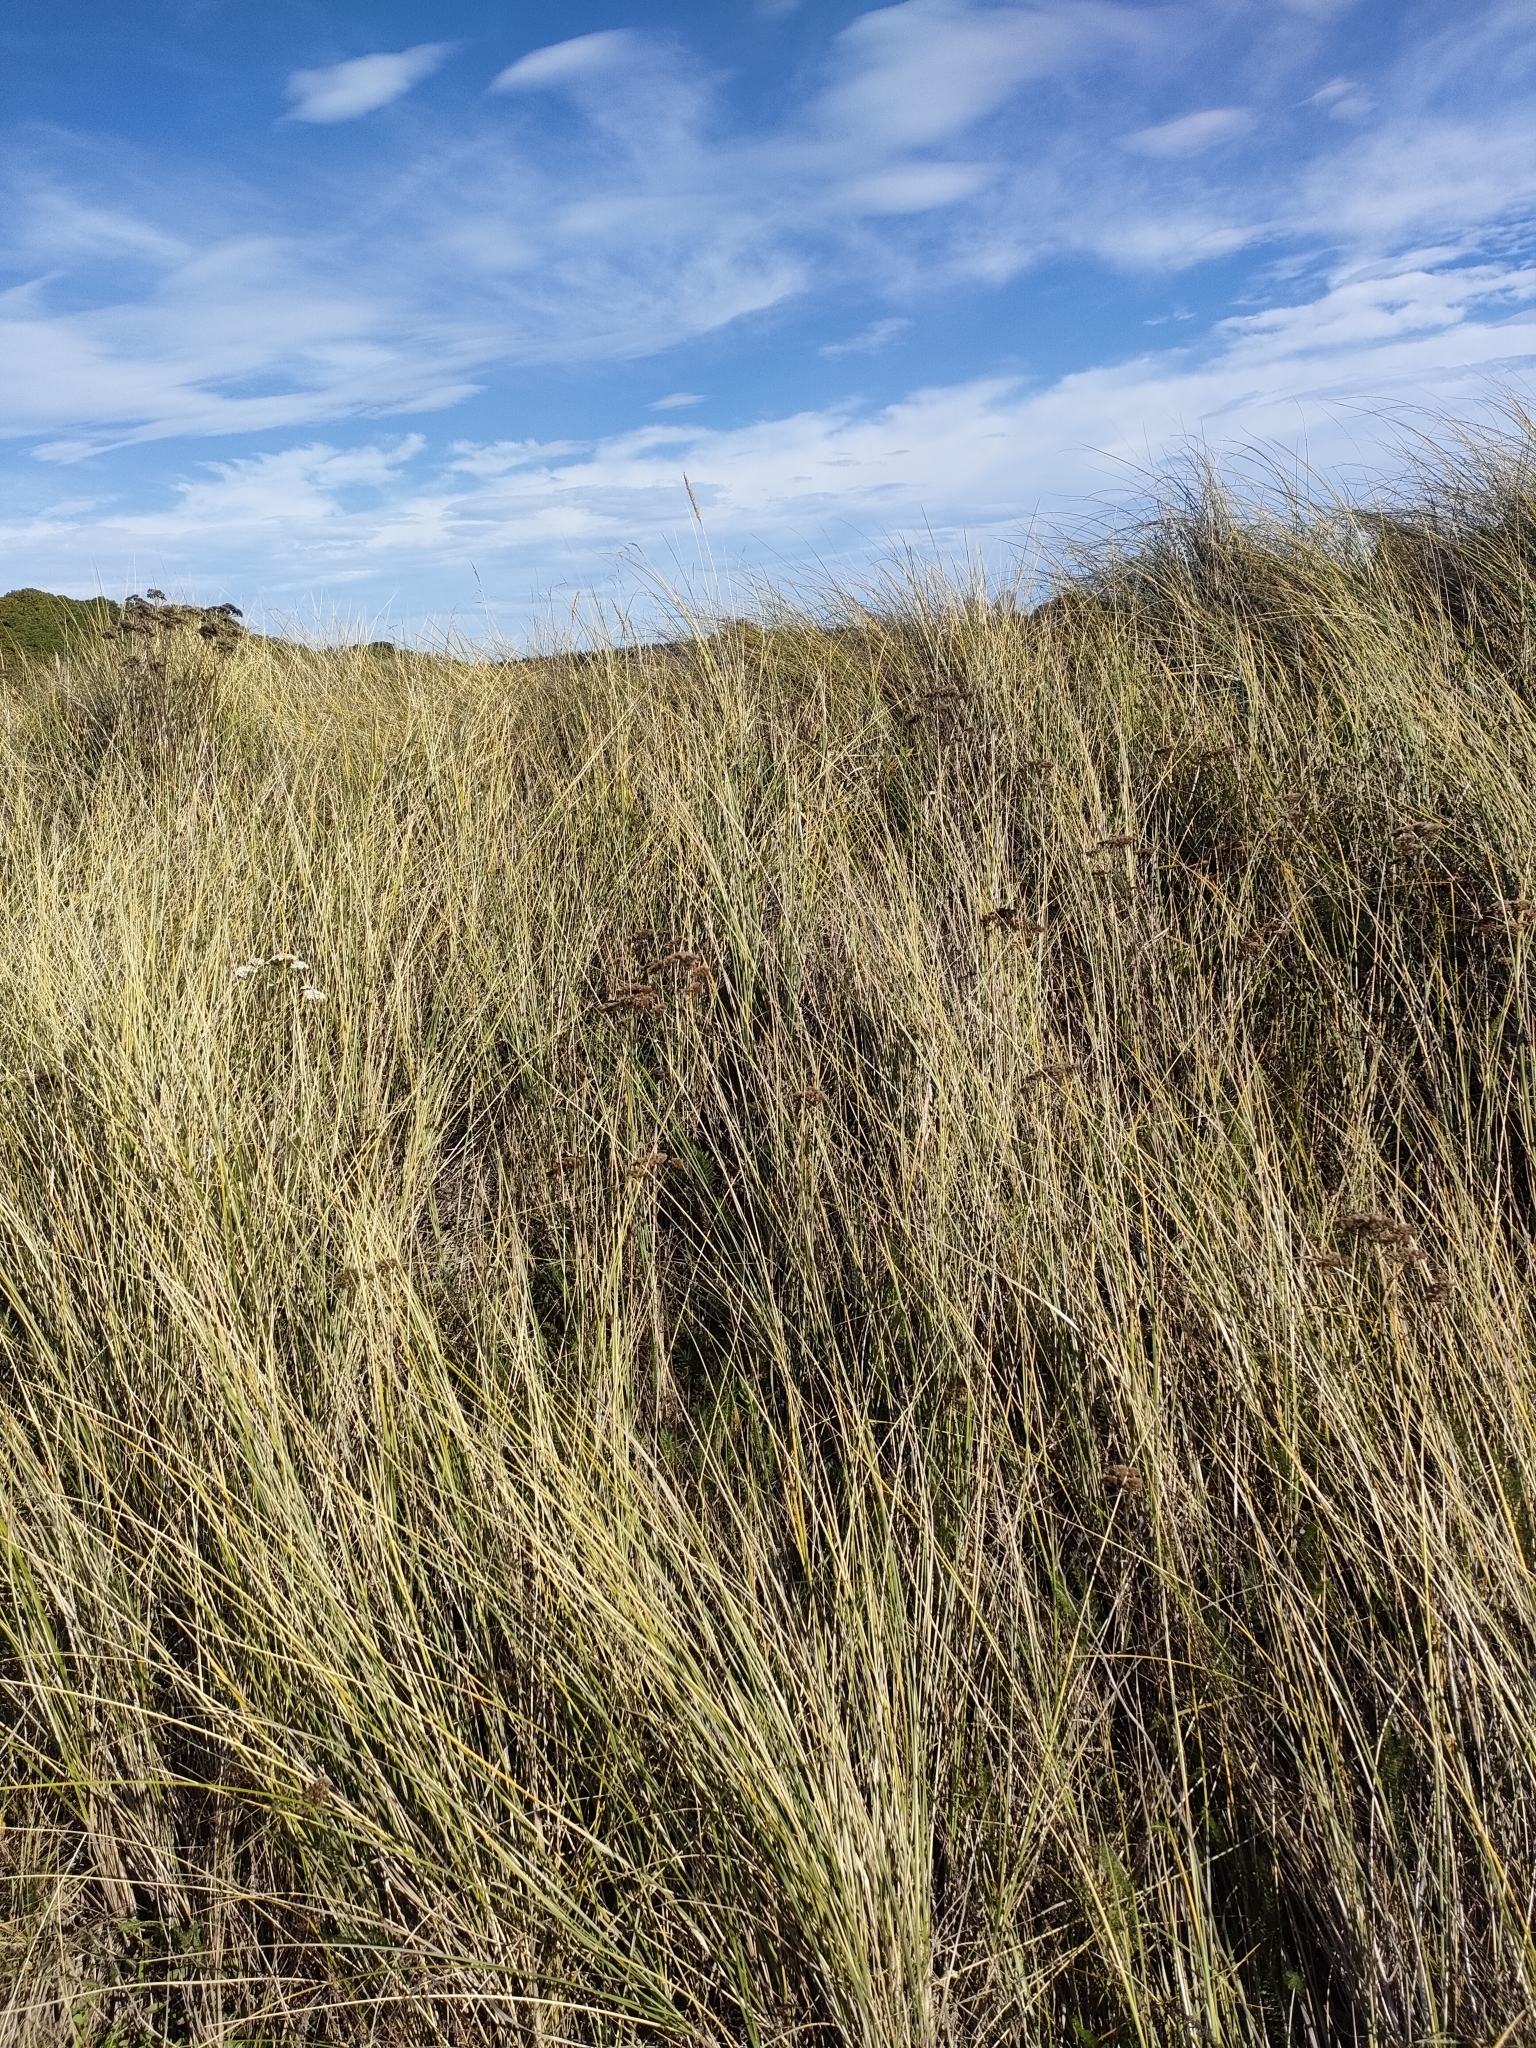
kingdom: Plantae
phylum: Tracheophyta
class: Liliopsida
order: Poales
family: Poaceae
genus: Calamagrostis
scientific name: Calamagrostis arenaria
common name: European beachgrass
